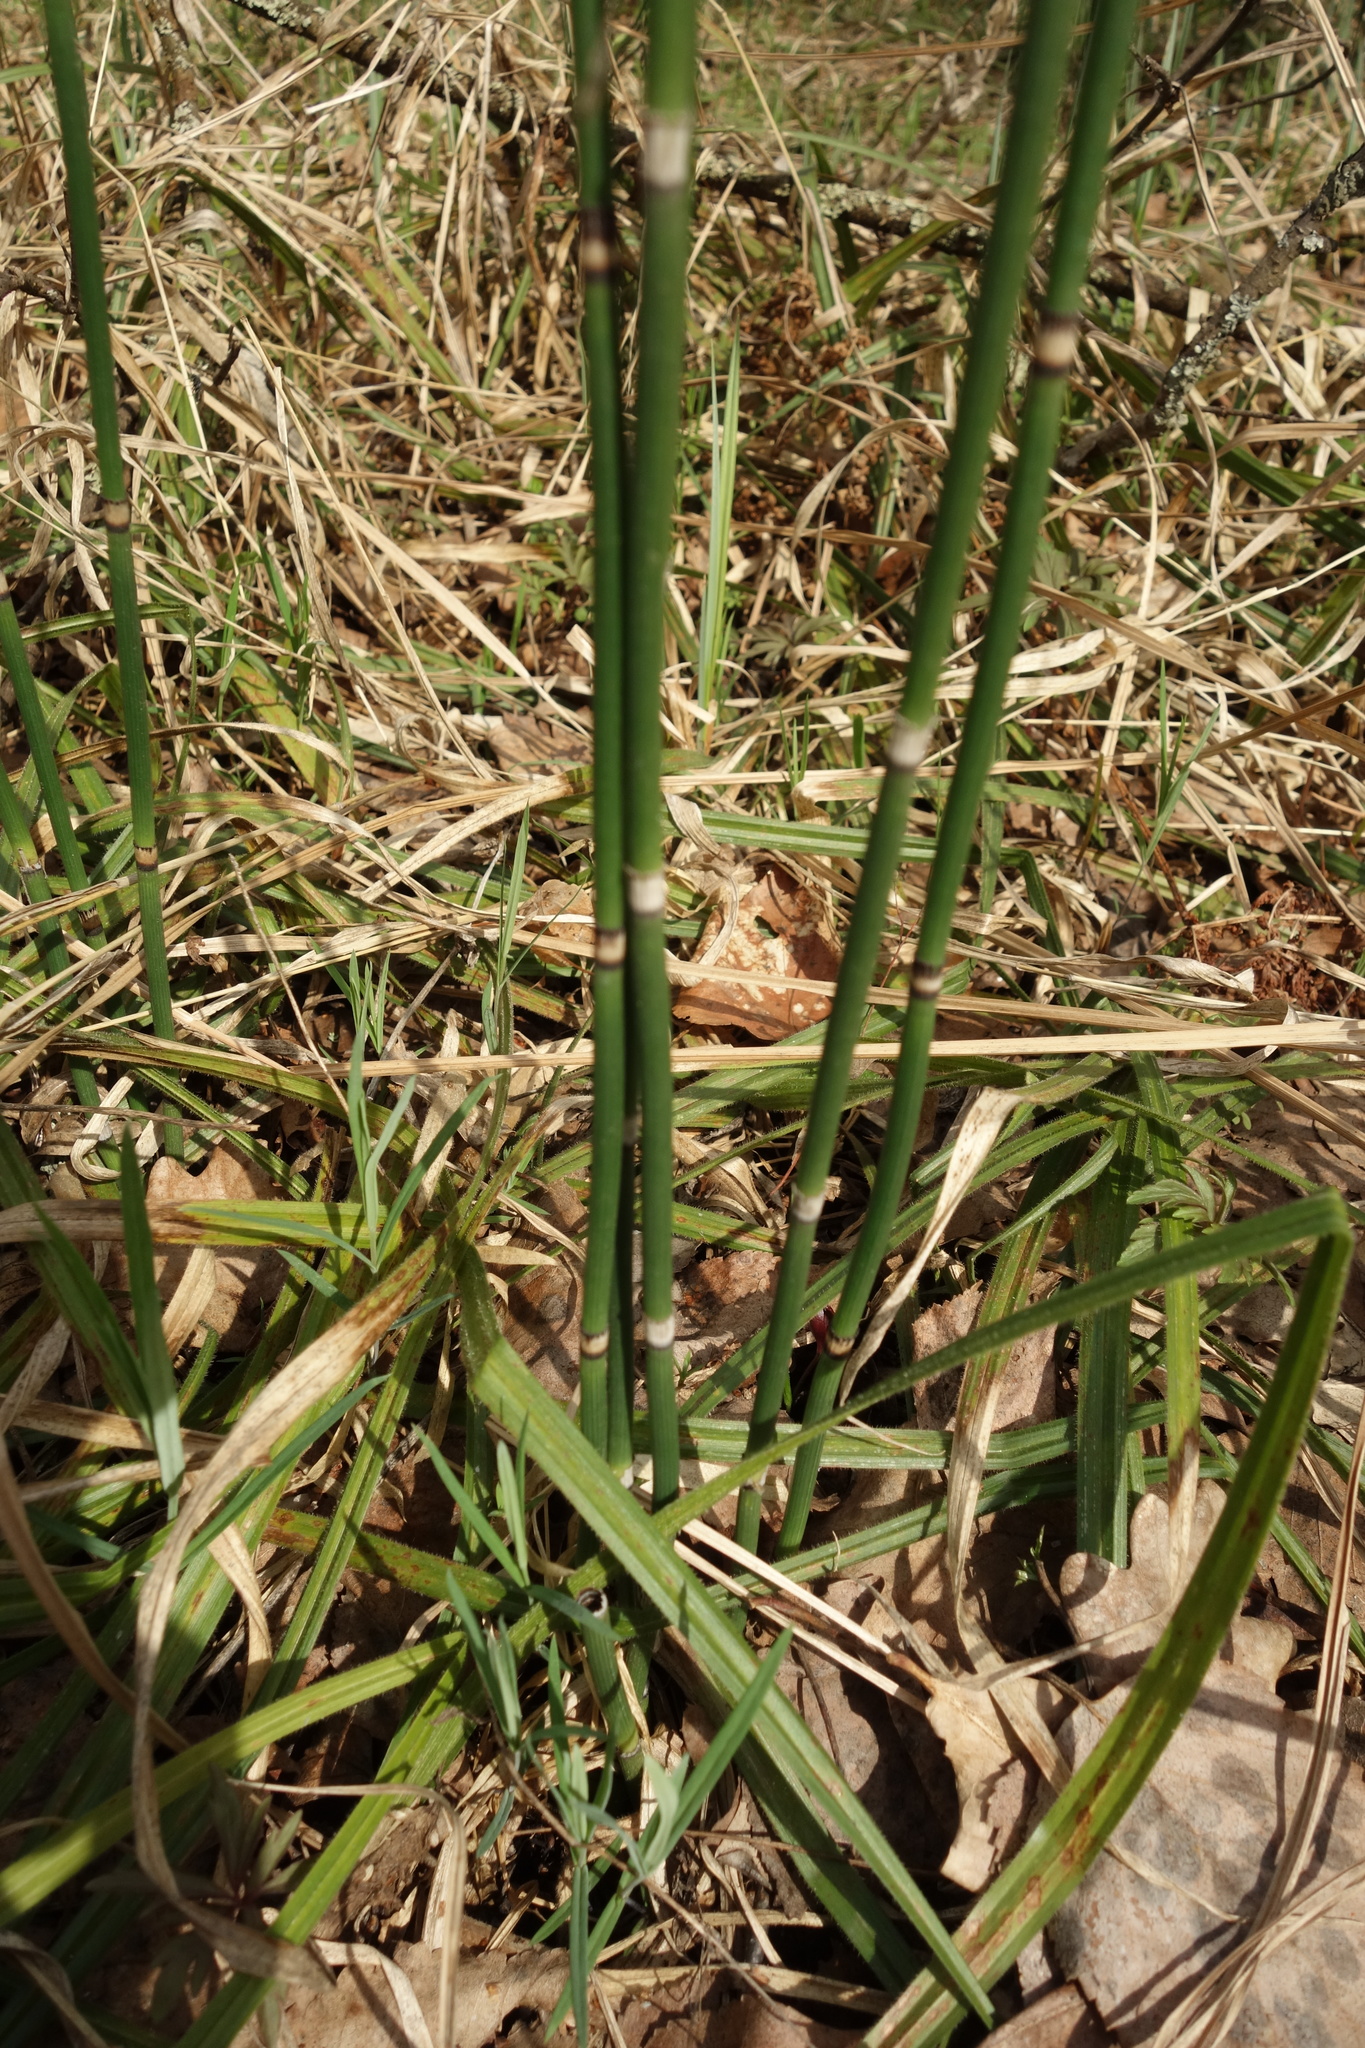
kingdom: Plantae
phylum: Tracheophyta
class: Polypodiopsida
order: Equisetales
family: Equisetaceae
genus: Equisetum
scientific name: Equisetum hyemale
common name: Rough horsetail
